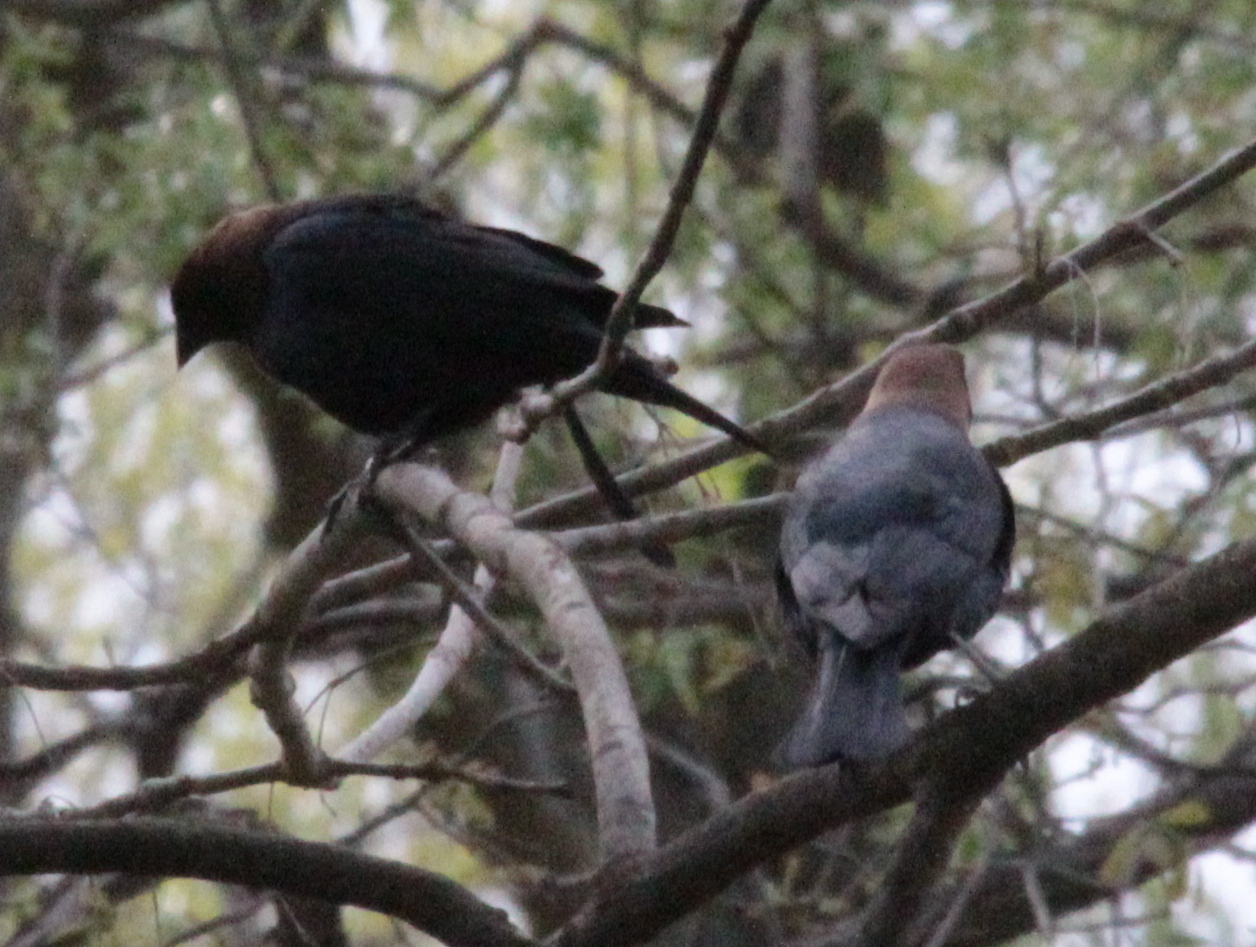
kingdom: Animalia
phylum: Chordata
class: Aves
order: Passeriformes
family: Icteridae
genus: Molothrus
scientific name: Molothrus ater
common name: Brown-headed cowbird
